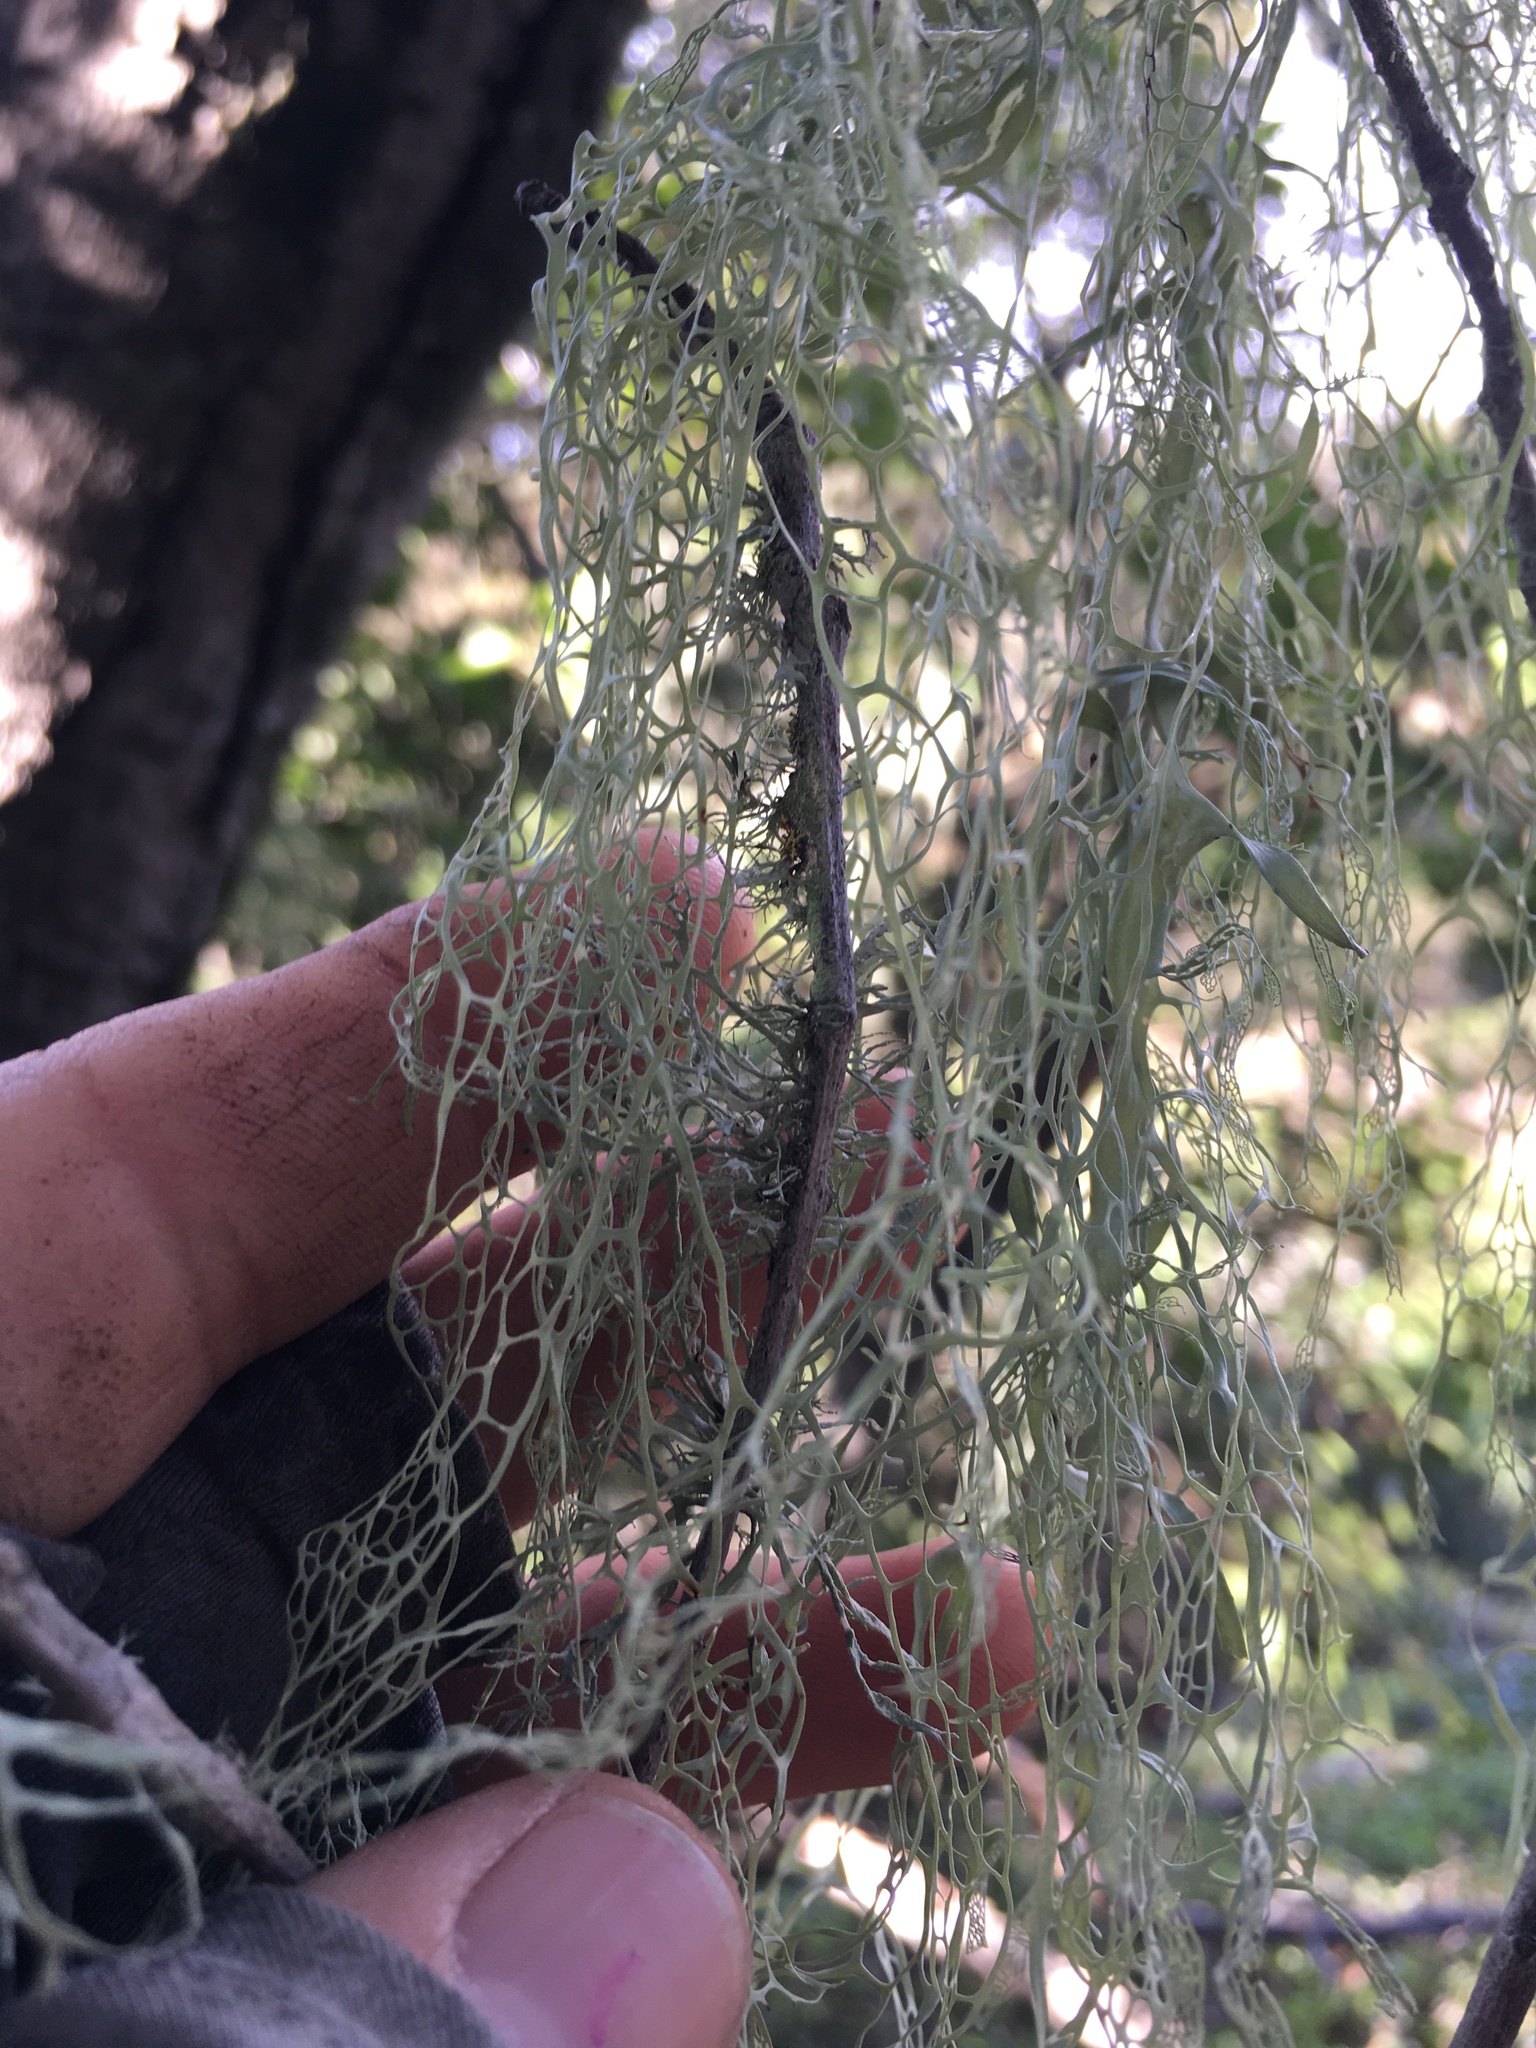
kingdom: Fungi
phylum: Ascomycota
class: Lecanoromycetes
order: Lecanorales
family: Ramalinaceae
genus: Ramalina
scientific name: Ramalina menziesii
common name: Lace lichen
